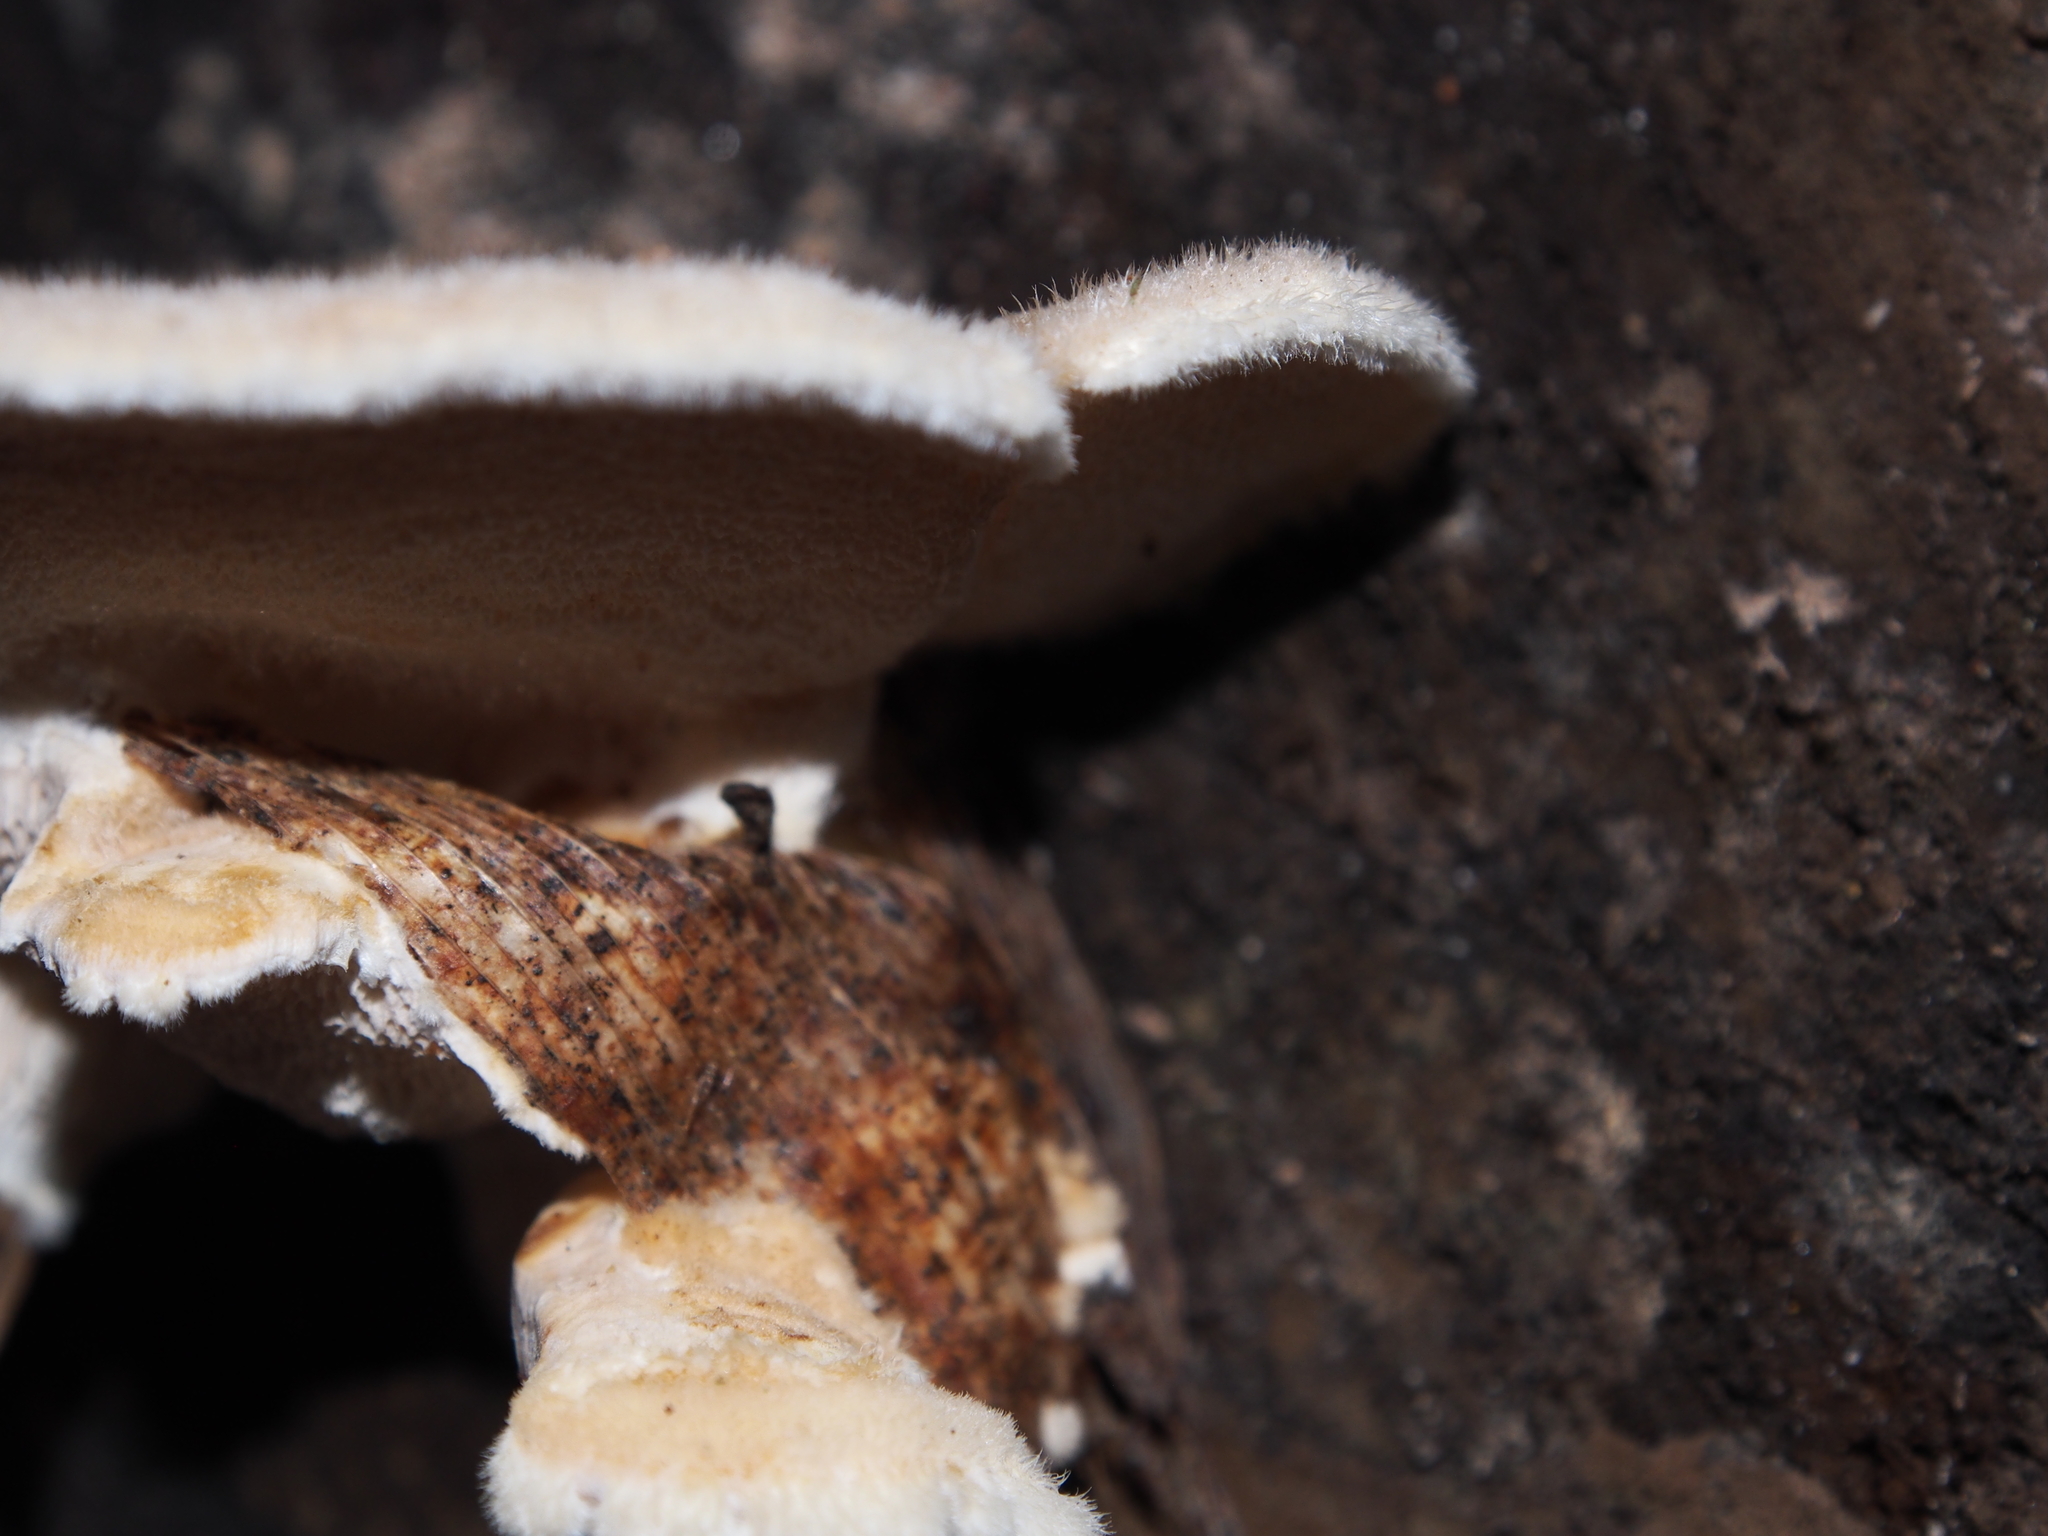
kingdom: Fungi
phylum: Basidiomycota
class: Agaricomycetes
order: Polyporales
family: Polyporaceae
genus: Trametes
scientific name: Trametes
